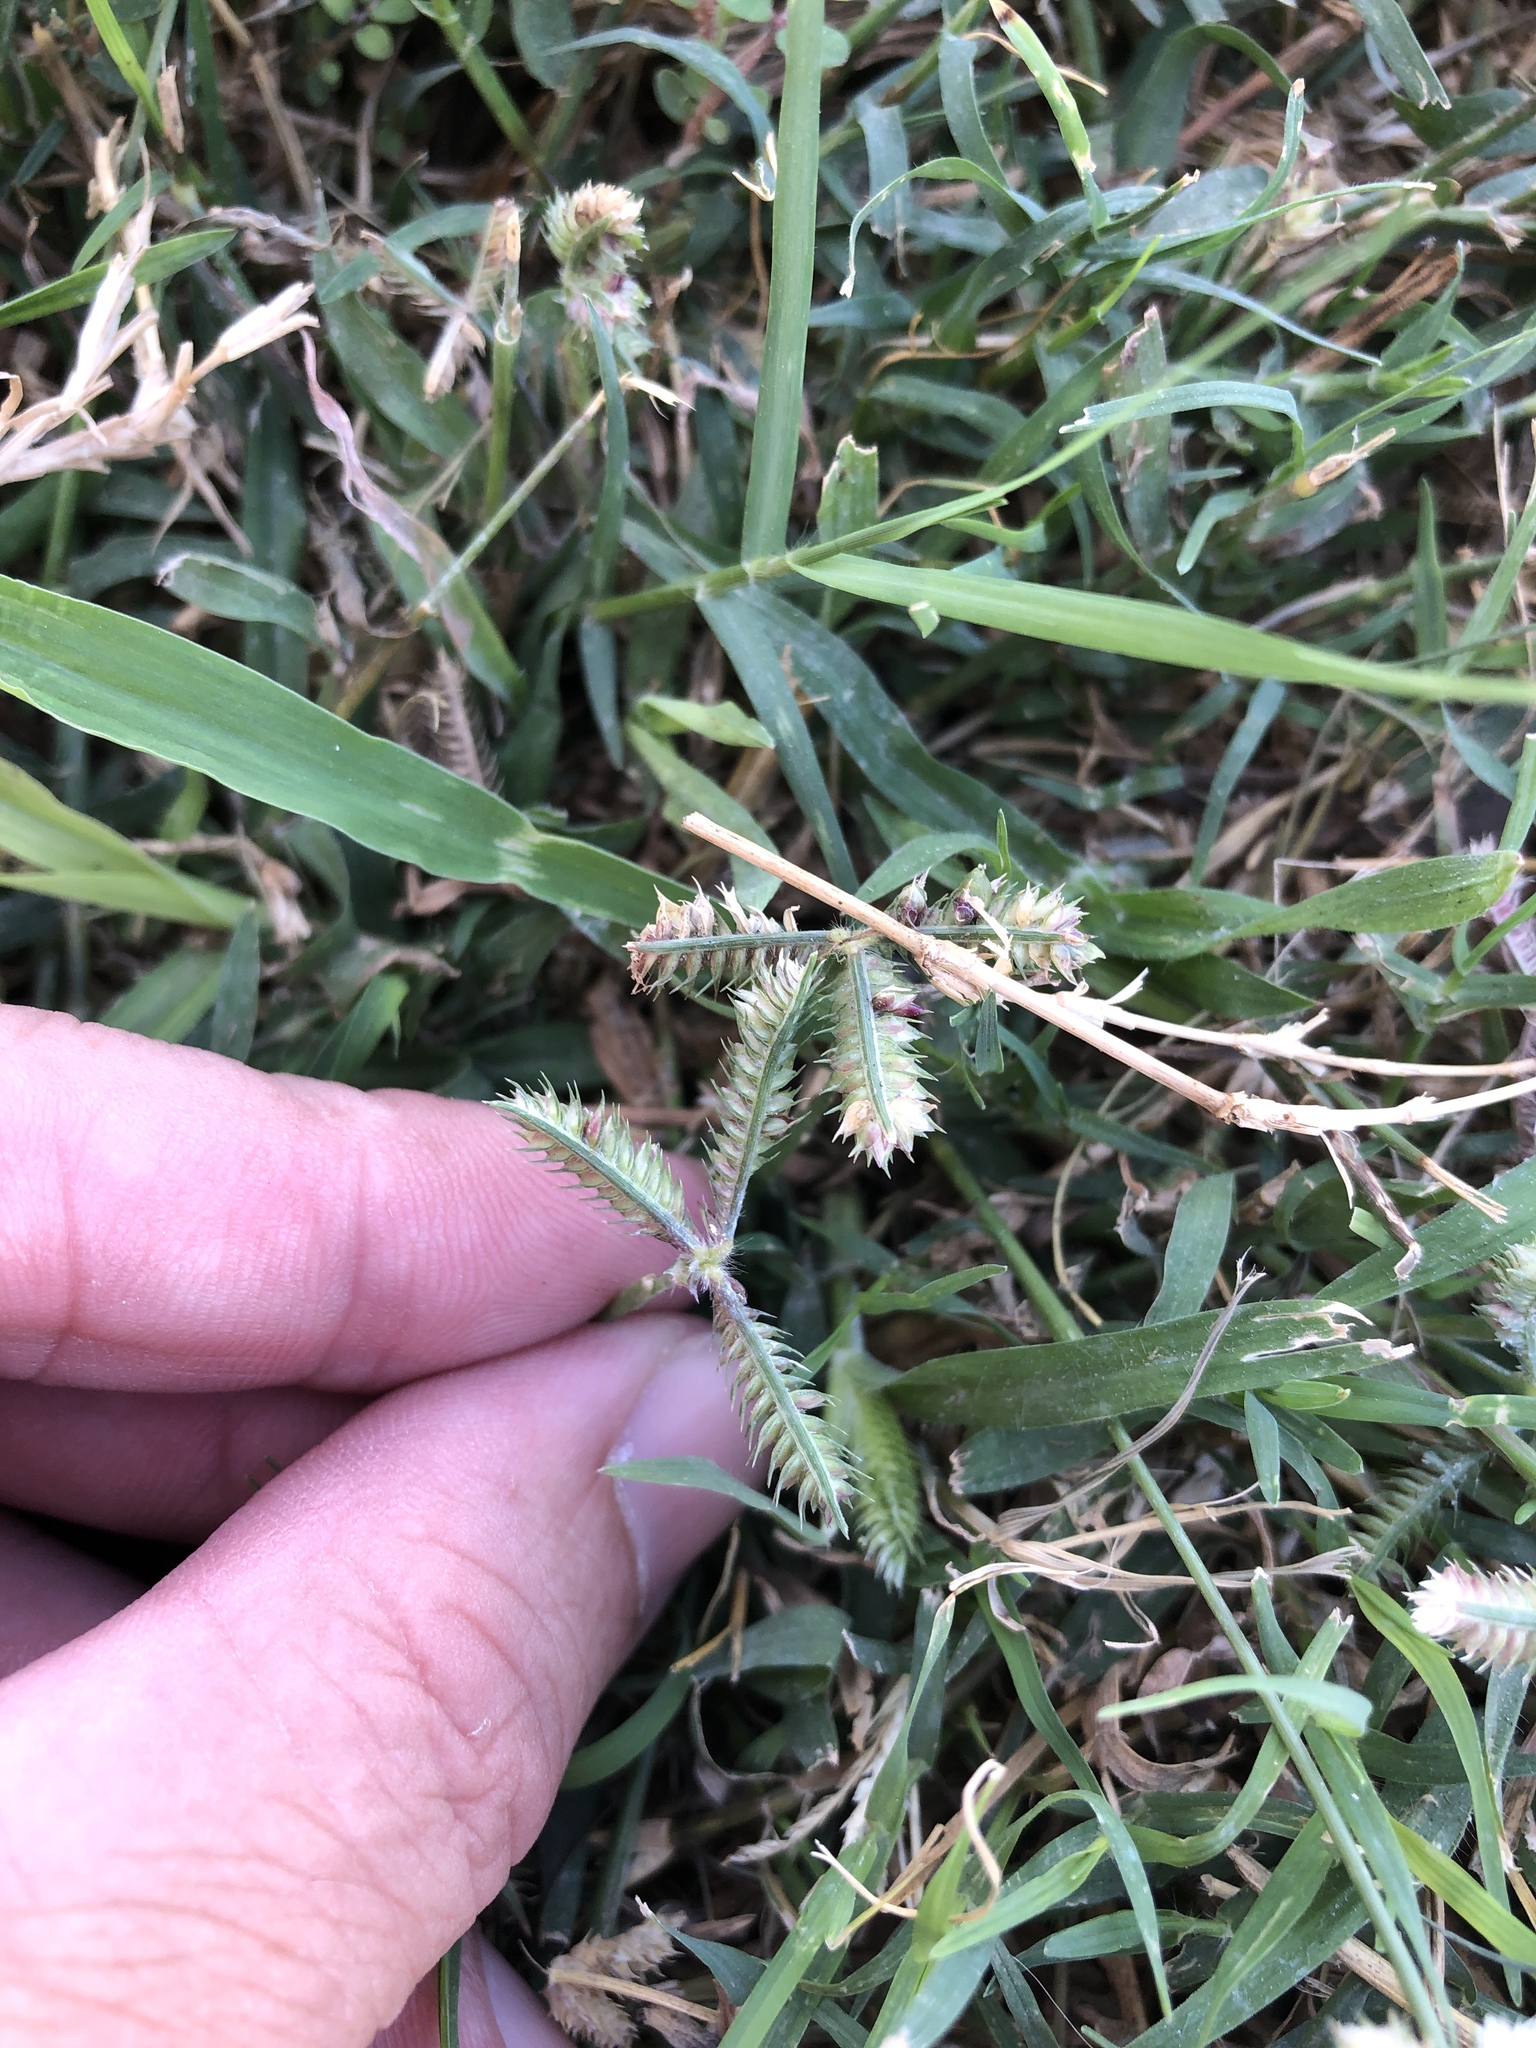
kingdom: Plantae
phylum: Tracheophyta
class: Liliopsida
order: Poales
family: Poaceae
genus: Dactyloctenium
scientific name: Dactyloctenium aegyptium
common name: Egyptian grass
